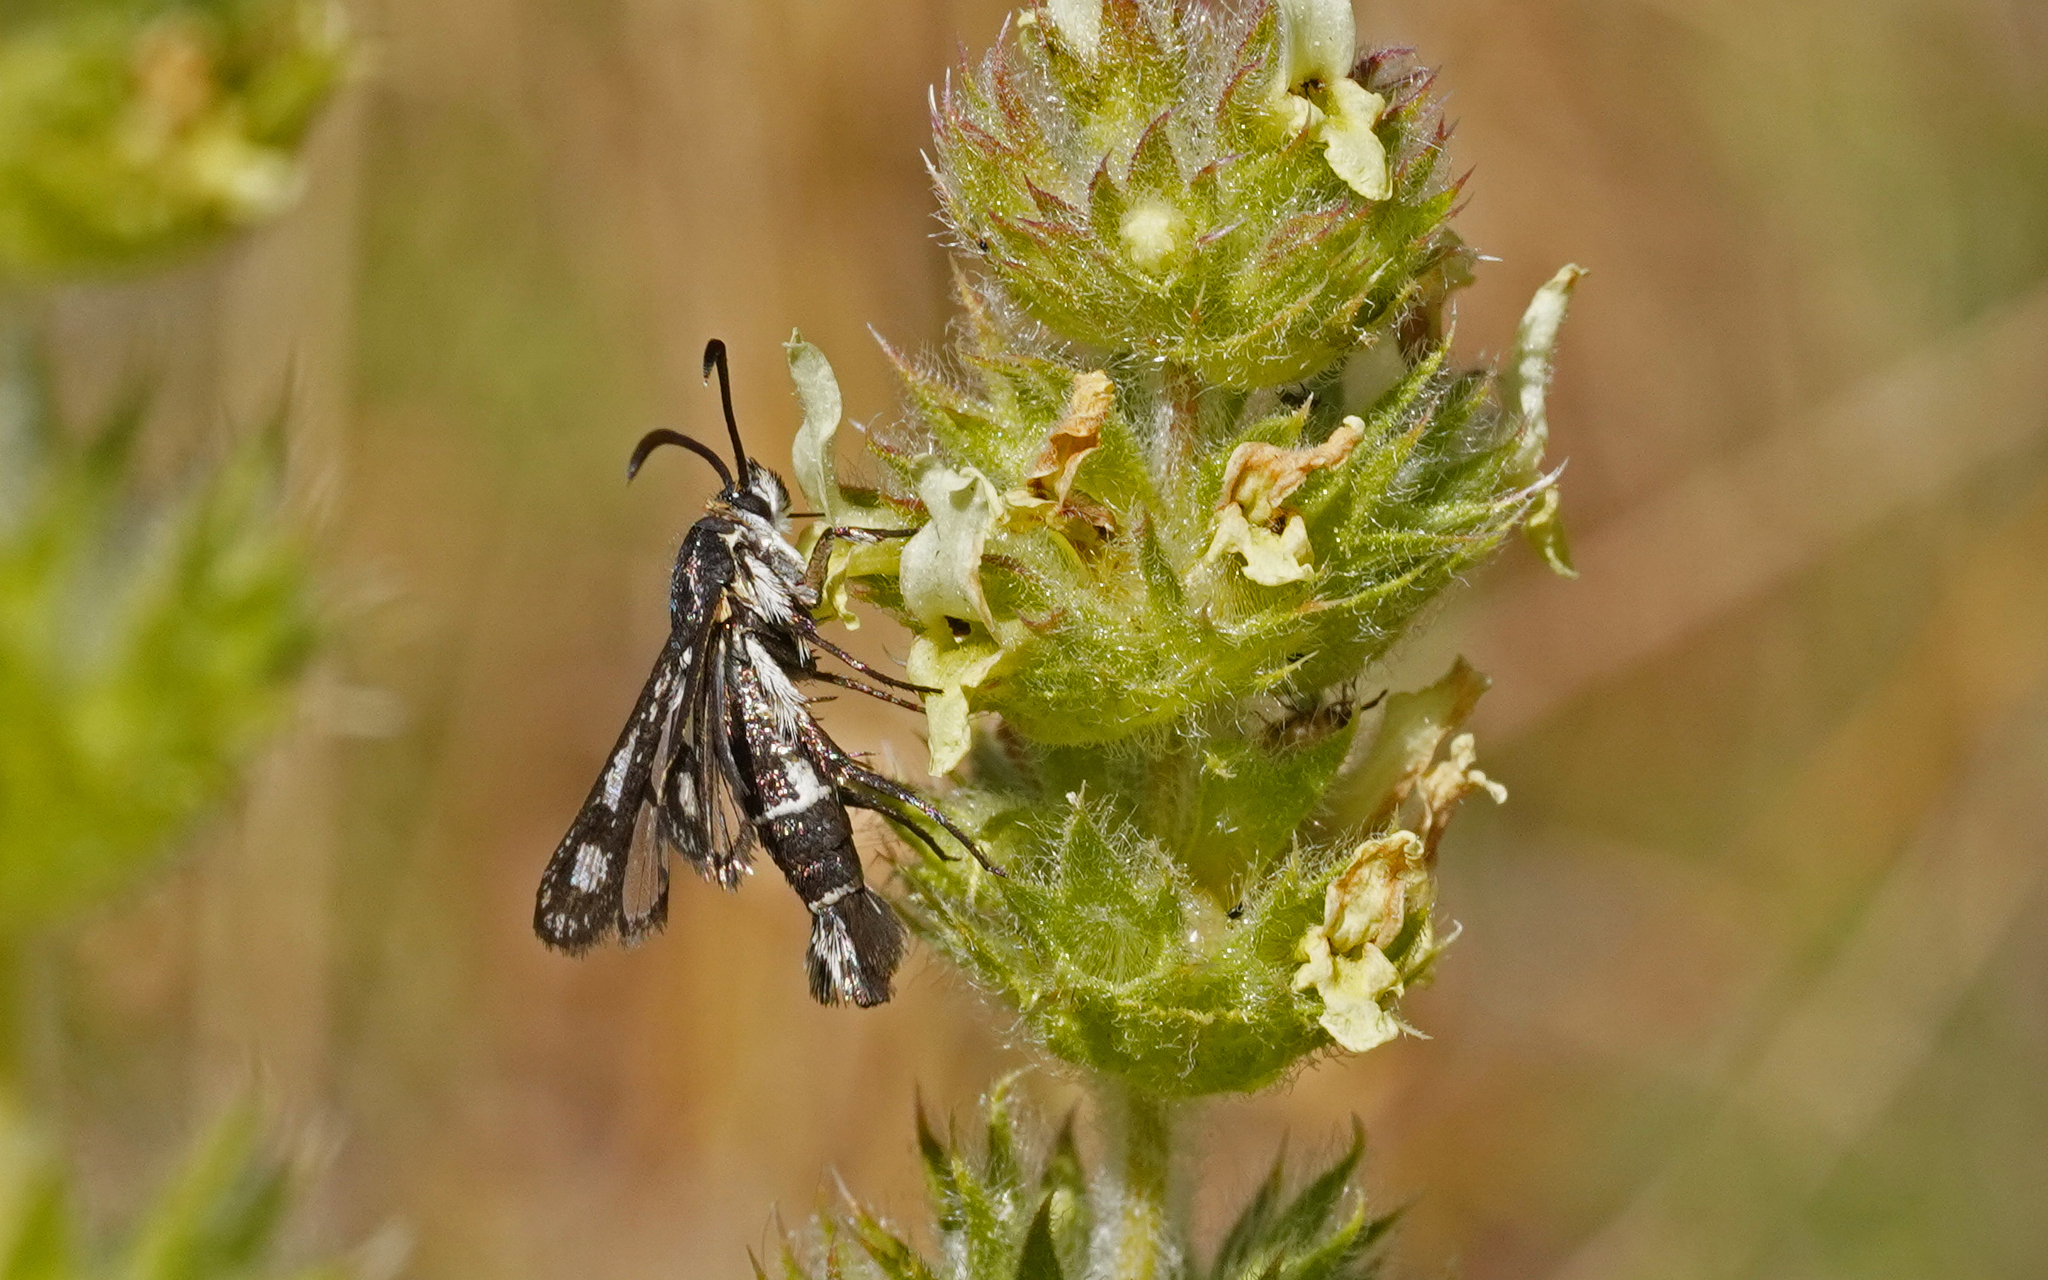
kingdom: Animalia
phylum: Arthropoda
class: Insecta
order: Lepidoptera
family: Sesiidae
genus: Pyropteron
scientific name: Pyropteron affinis
